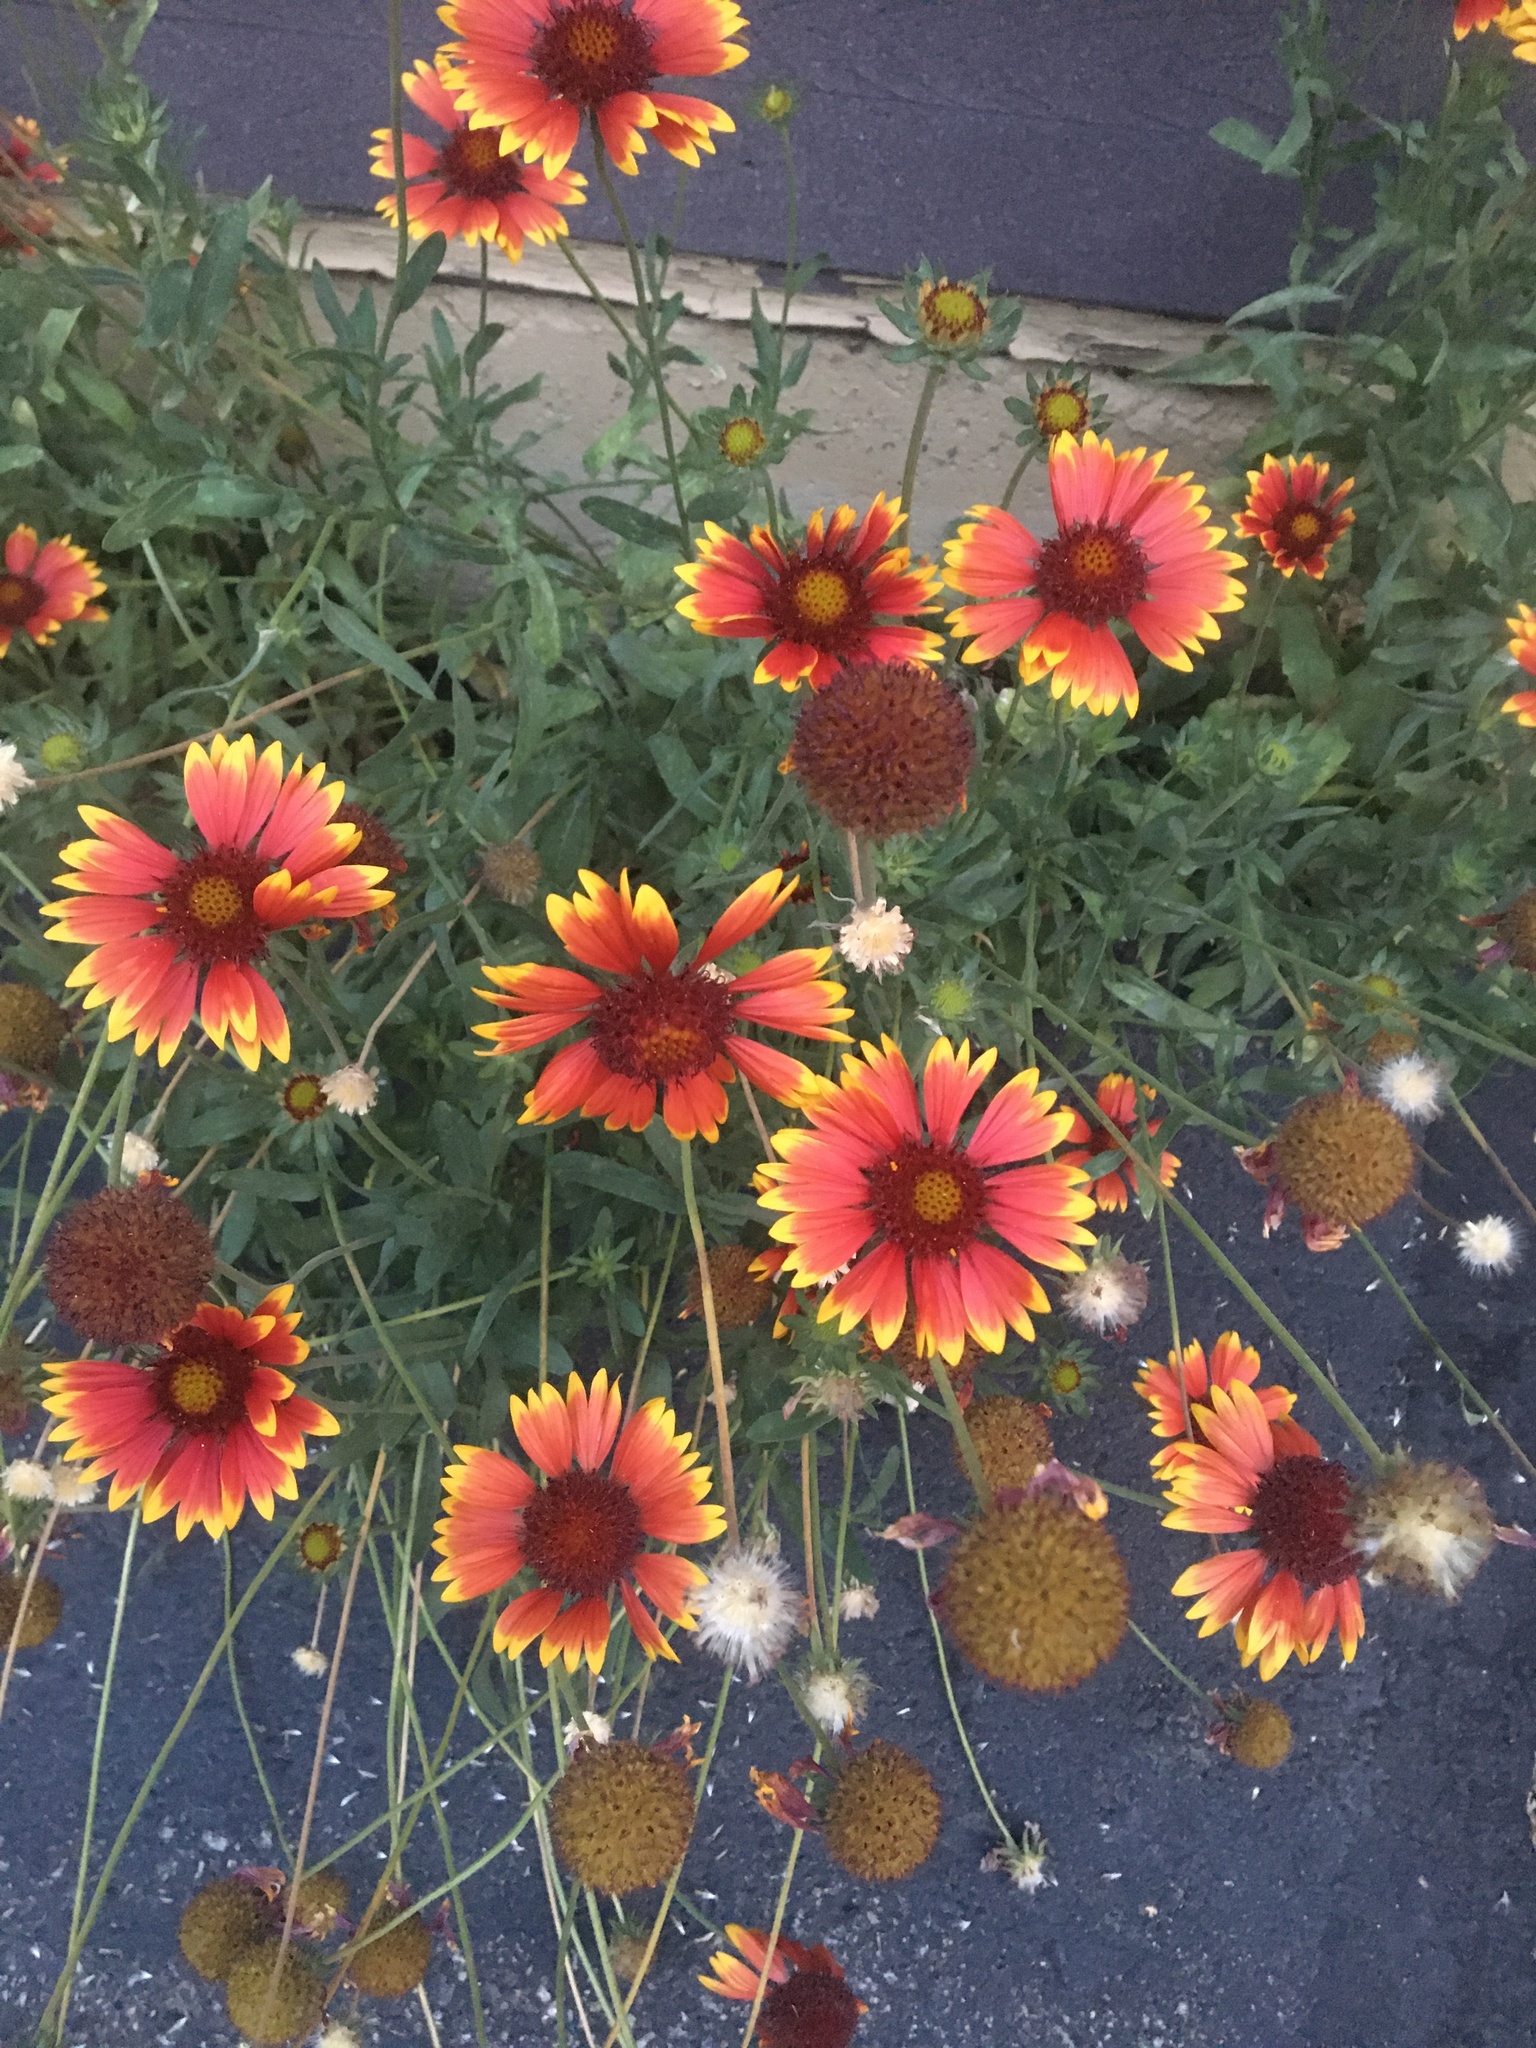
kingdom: Plantae
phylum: Tracheophyta
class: Magnoliopsida
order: Asterales
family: Asteraceae
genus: Gaillardia
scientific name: Gaillardia pulchella
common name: Firewheel
